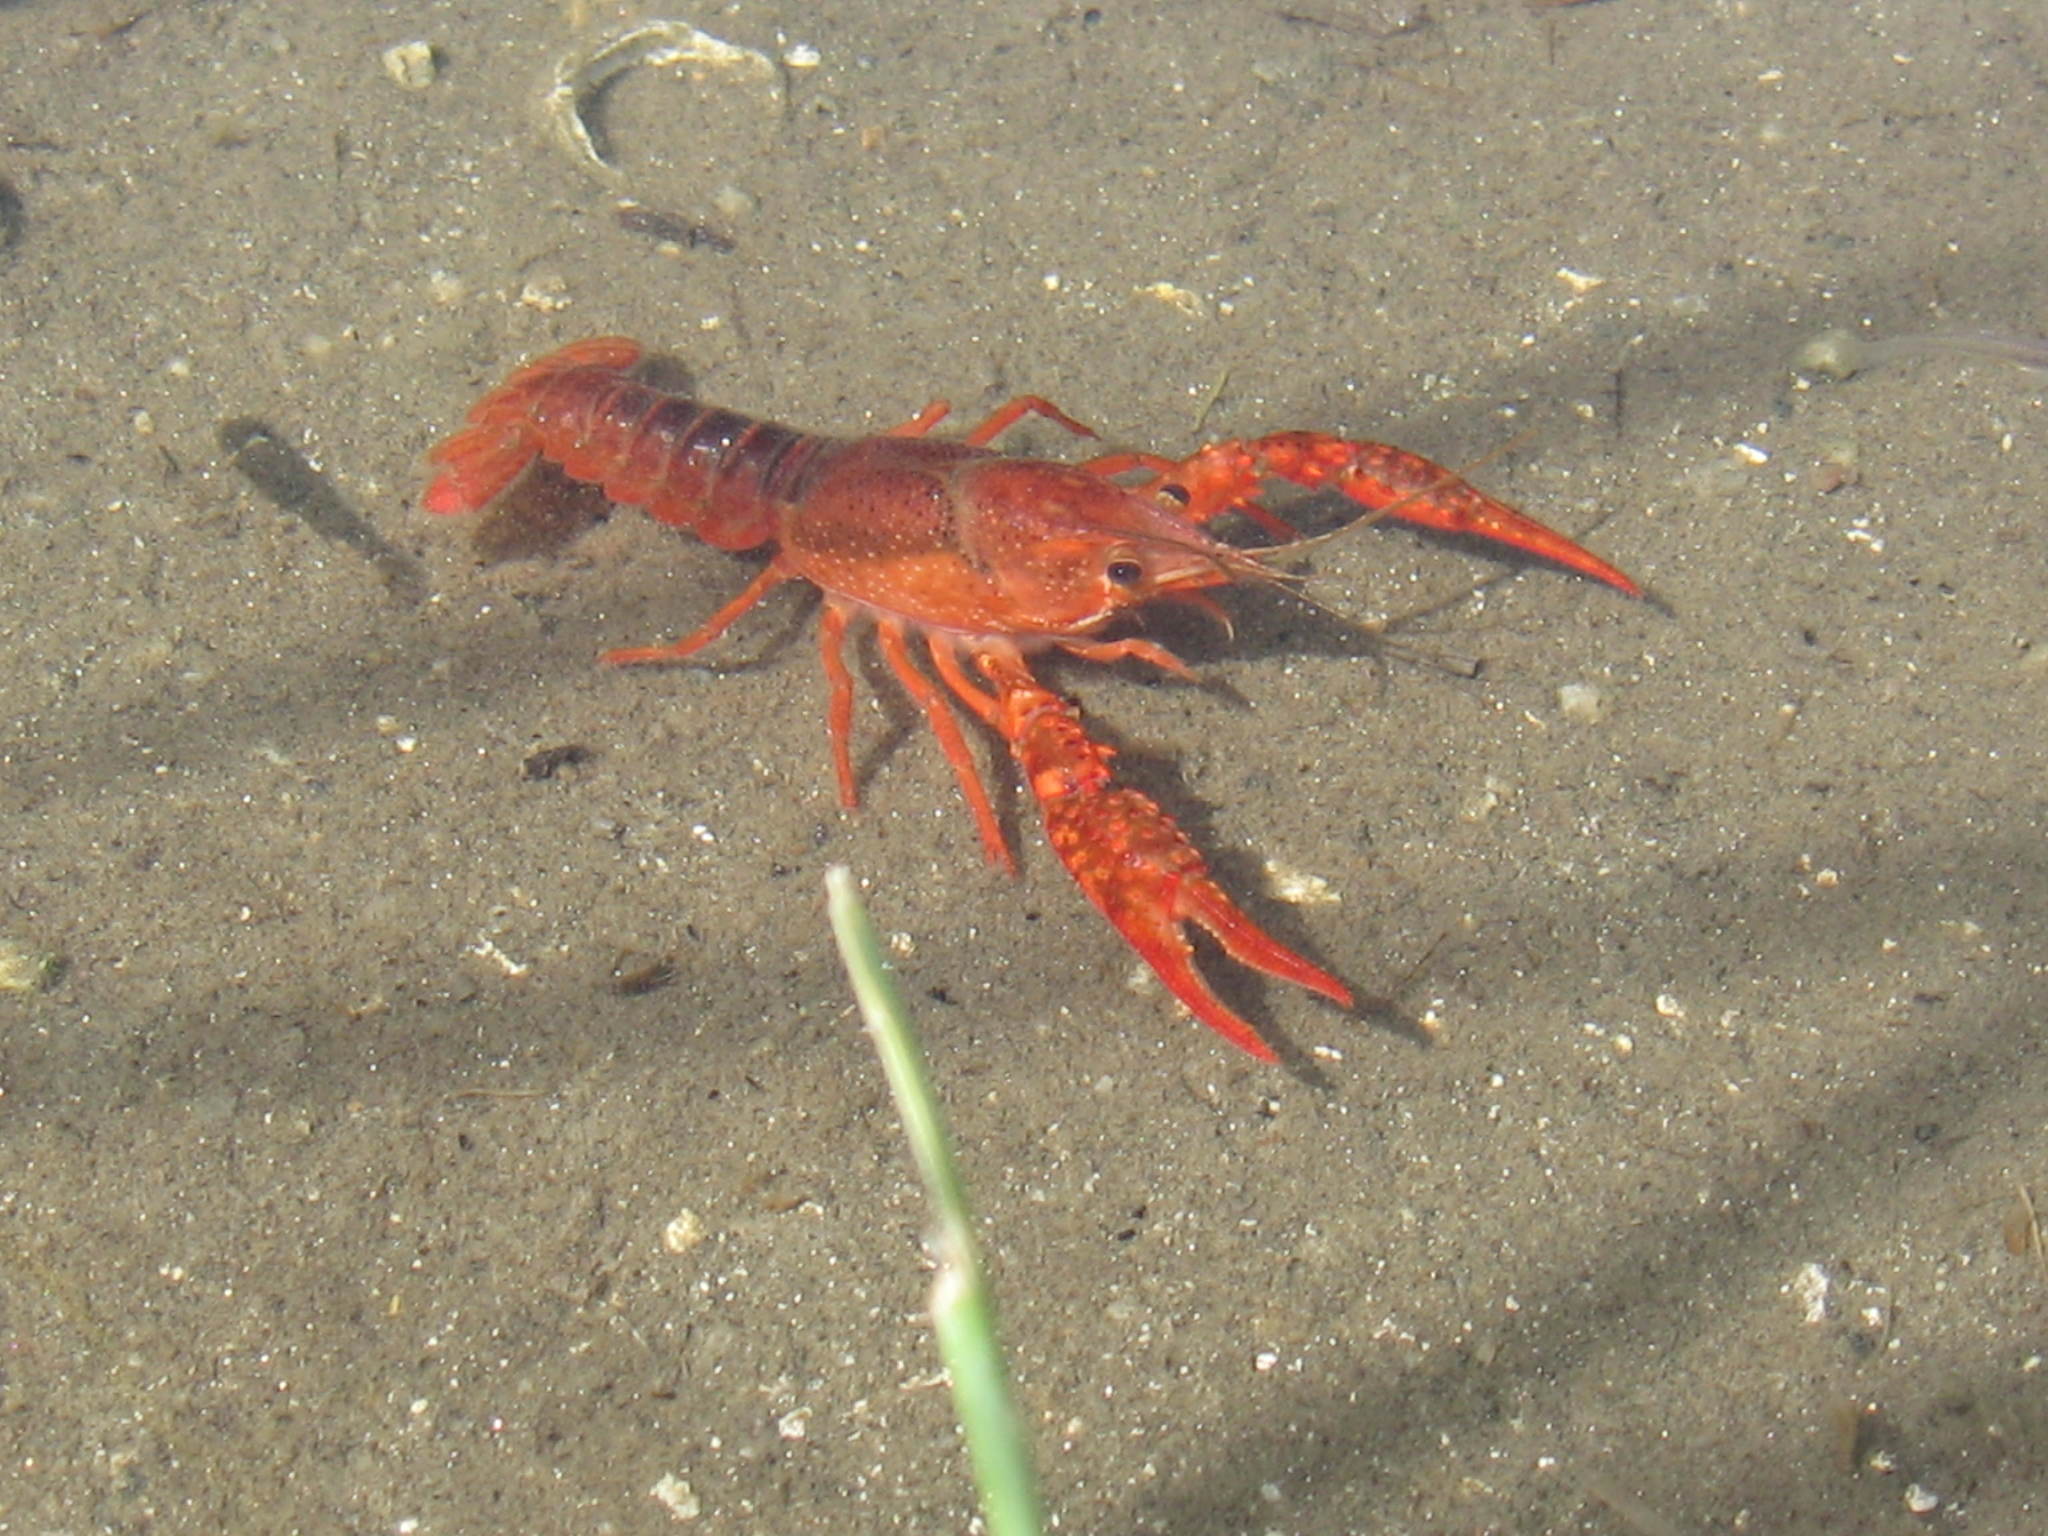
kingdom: Animalia
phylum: Arthropoda
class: Malacostraca
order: Decapoda
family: Cambaridae
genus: Procambarus
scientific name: Procambarus clarkii
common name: Red swamp crayfish
